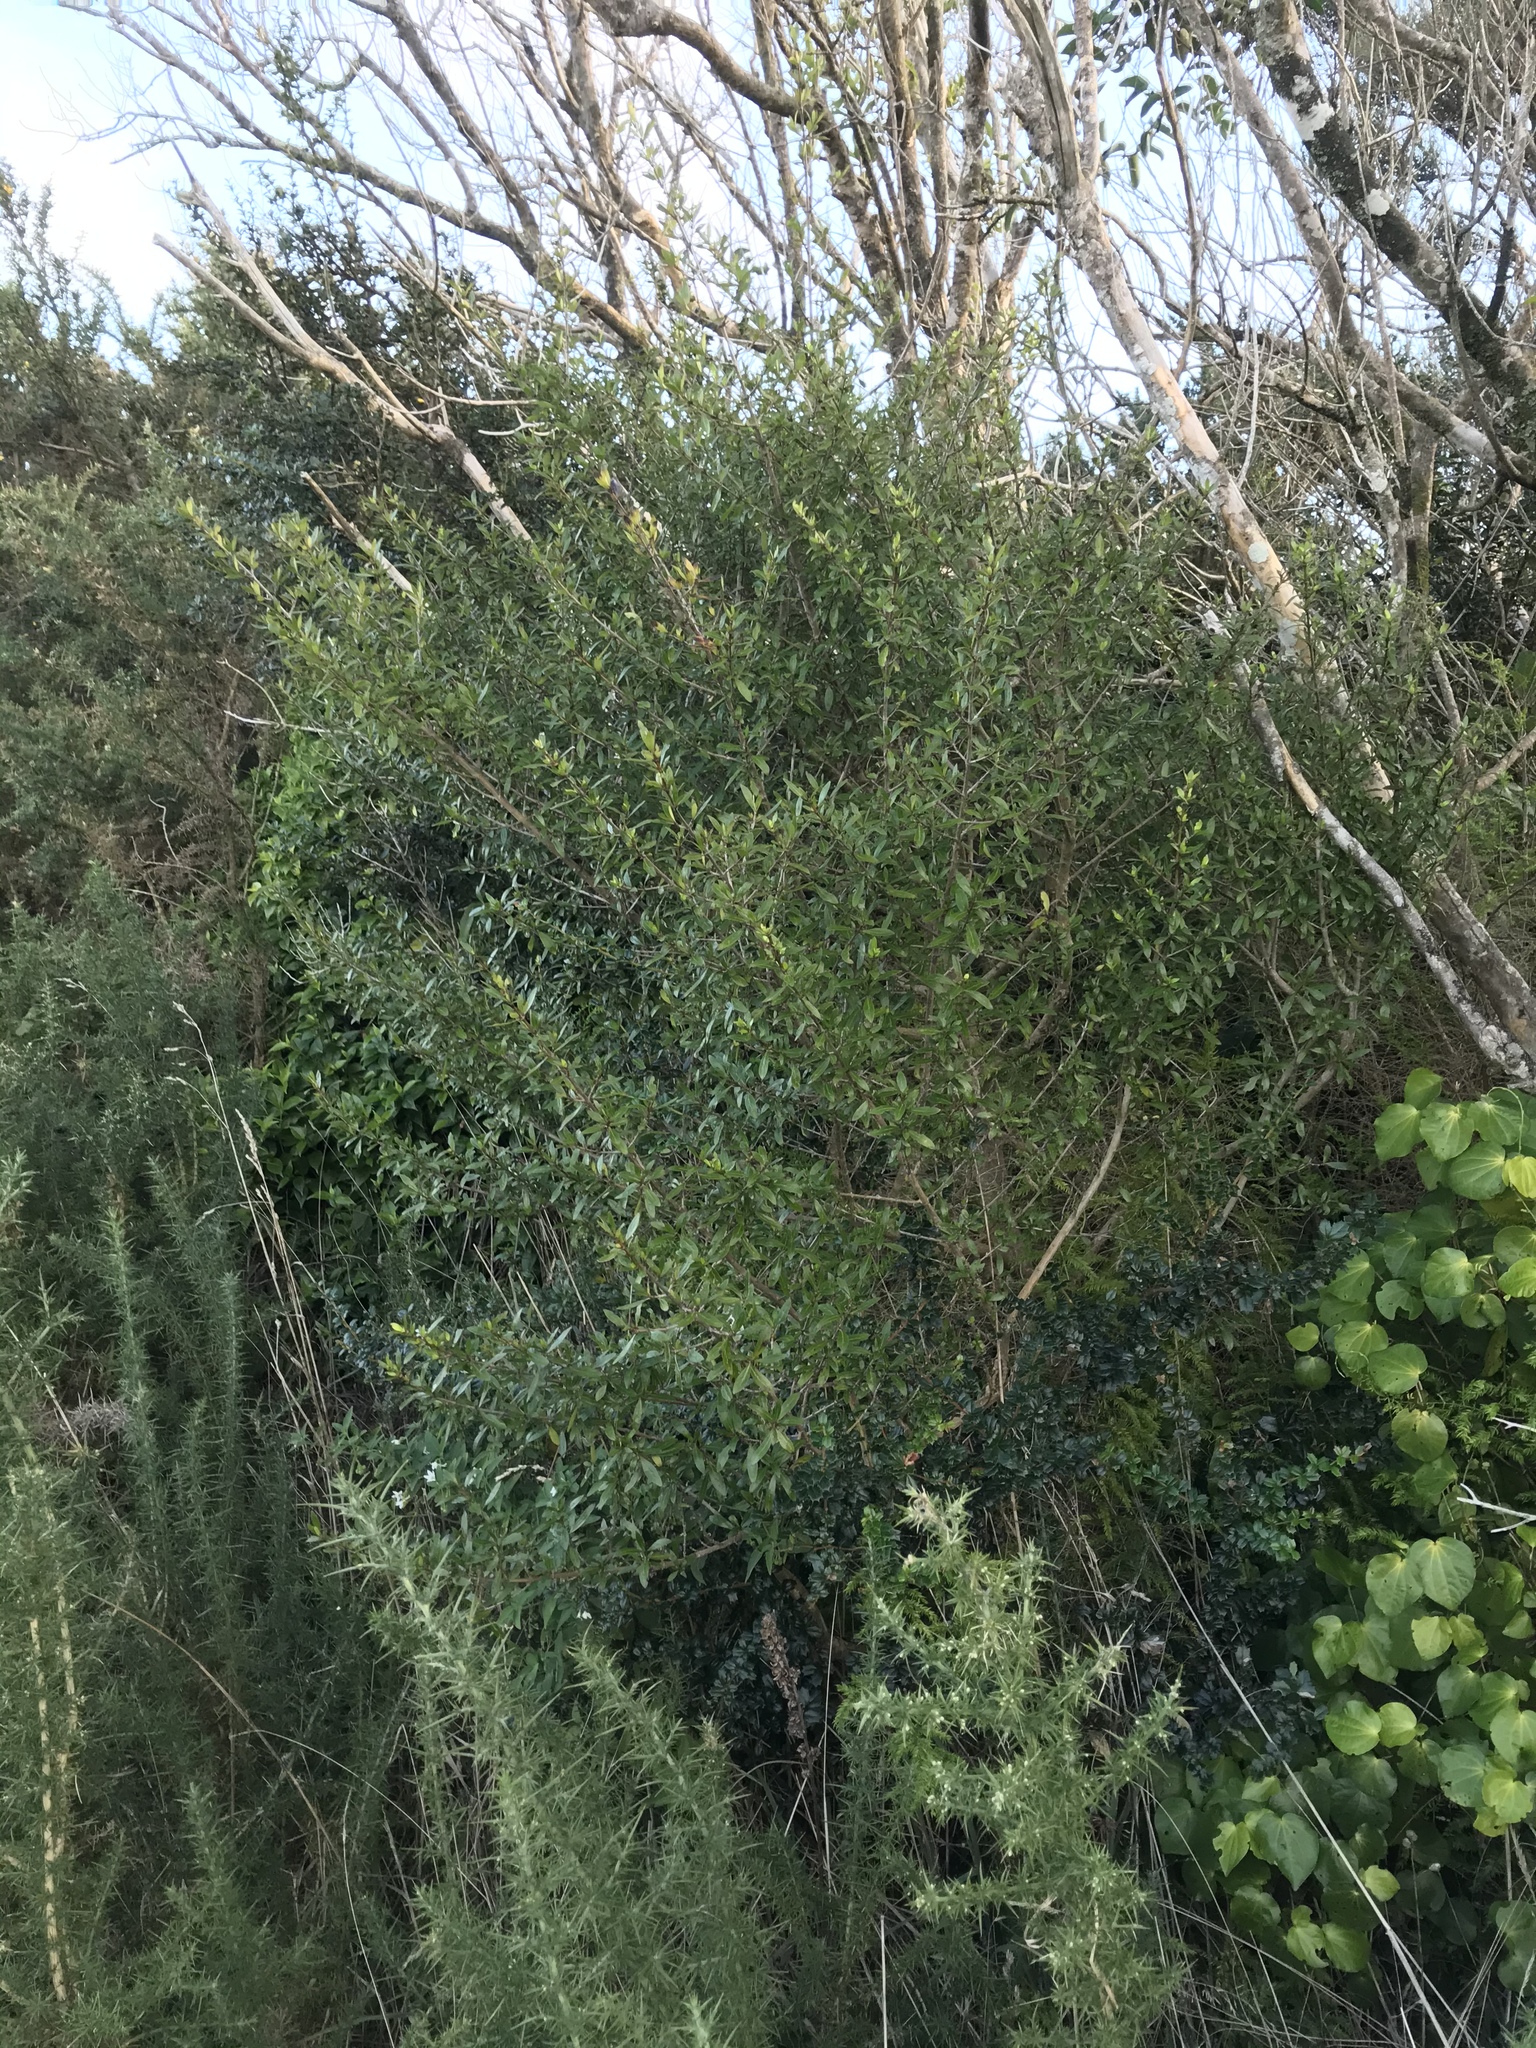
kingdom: Plantae
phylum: Tracheophyta
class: Magnoliopsida
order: Gentianales
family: Rubiaceae
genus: Coprosma
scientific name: Coprosma cunninghamii
